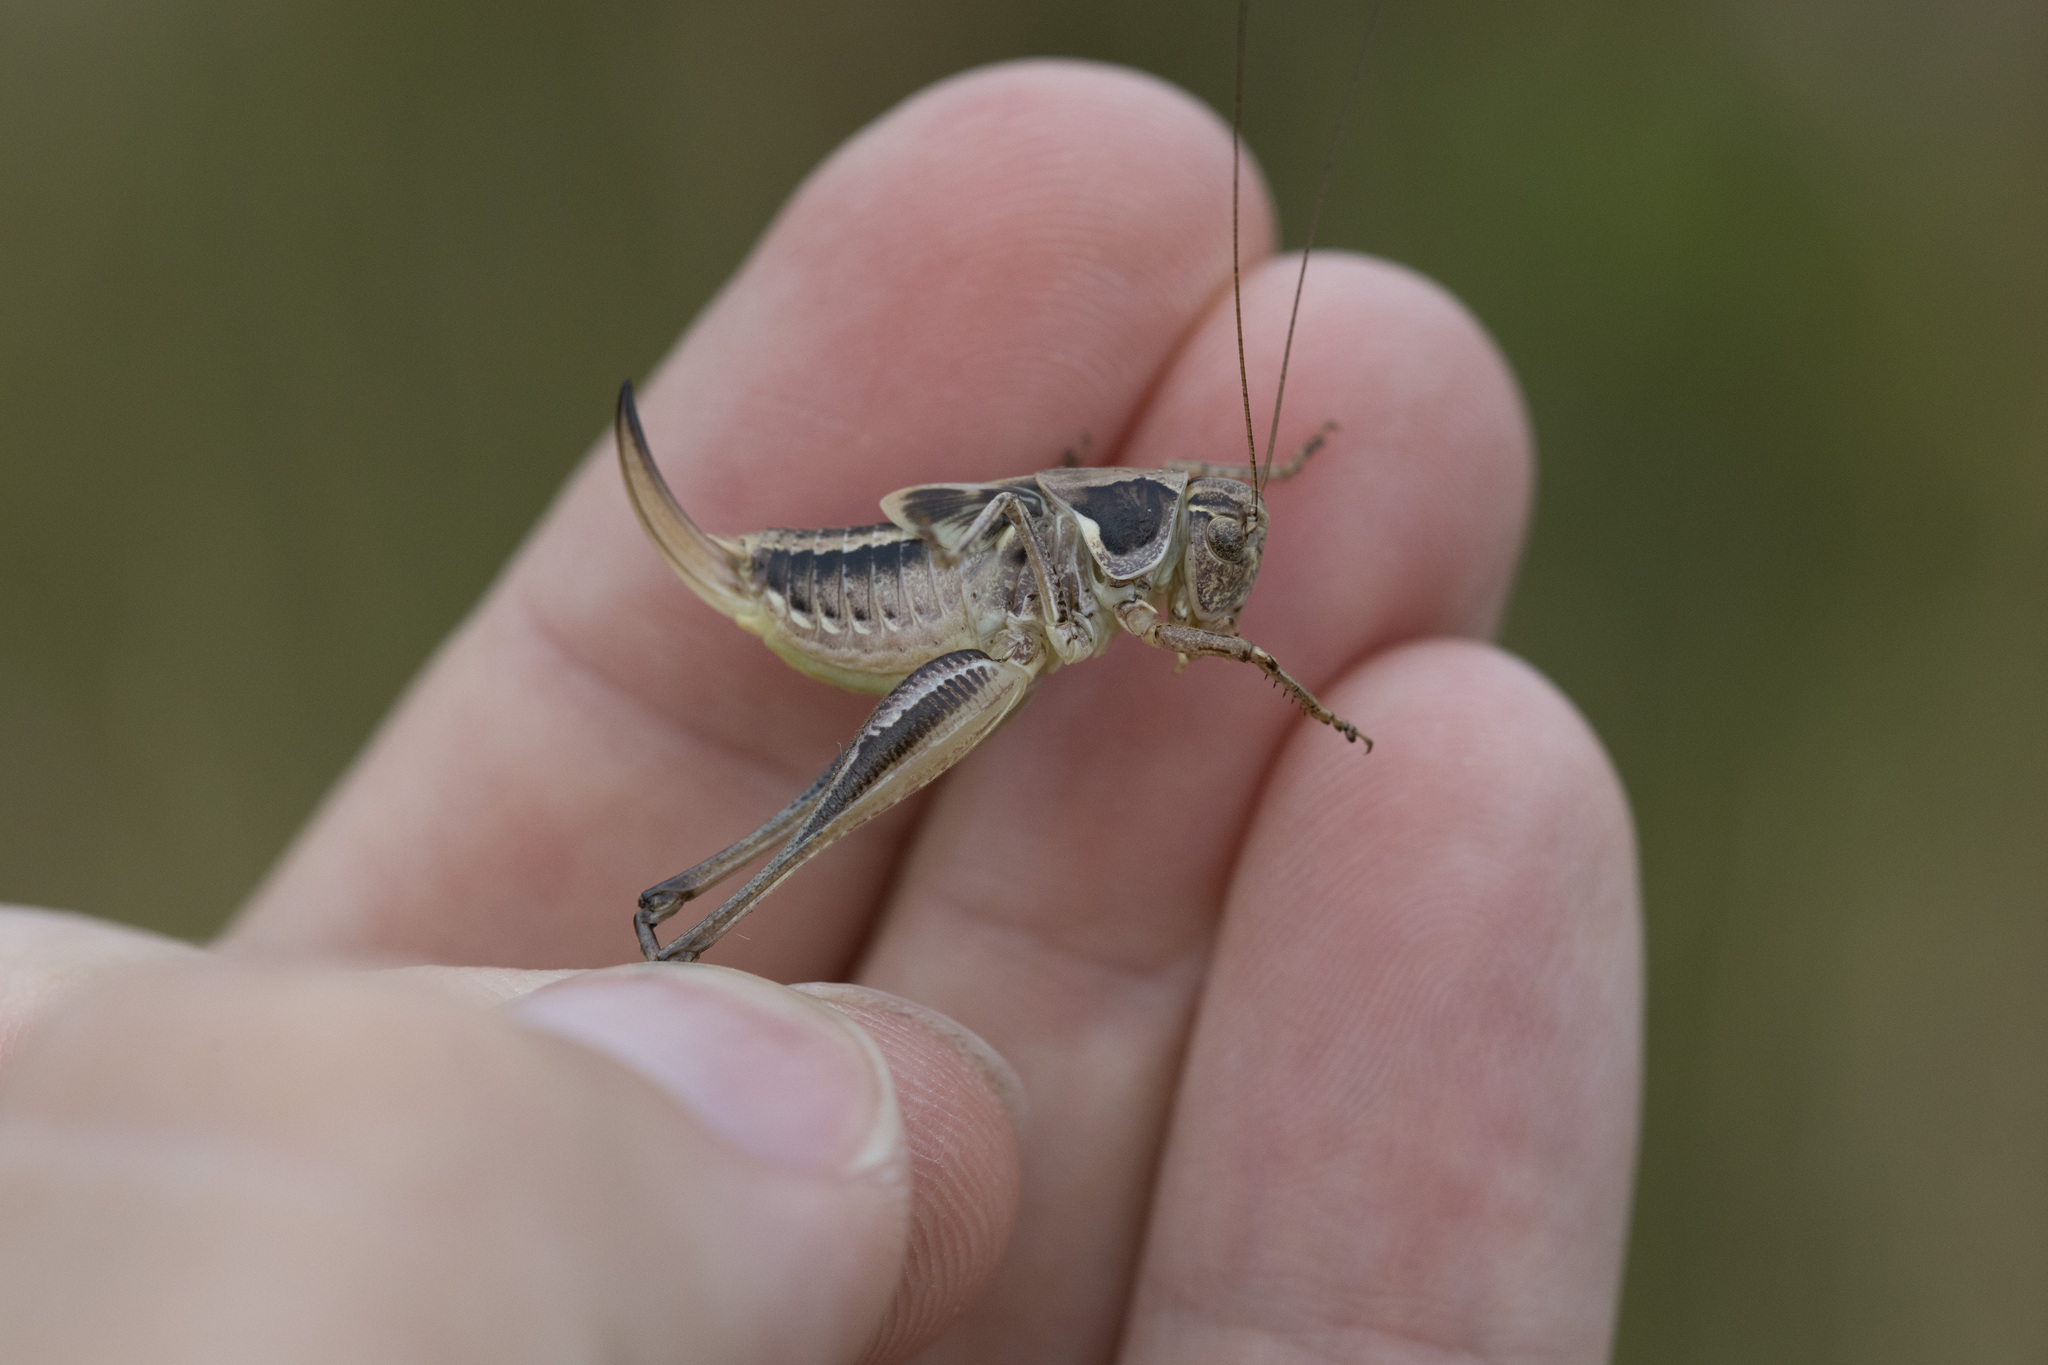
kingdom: Animalia
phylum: Arthropoda
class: Insecta
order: Orthoptera
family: Tettigoniidae
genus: Platycleis
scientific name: Platycleis albopunctata
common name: Grey bush-cricket
